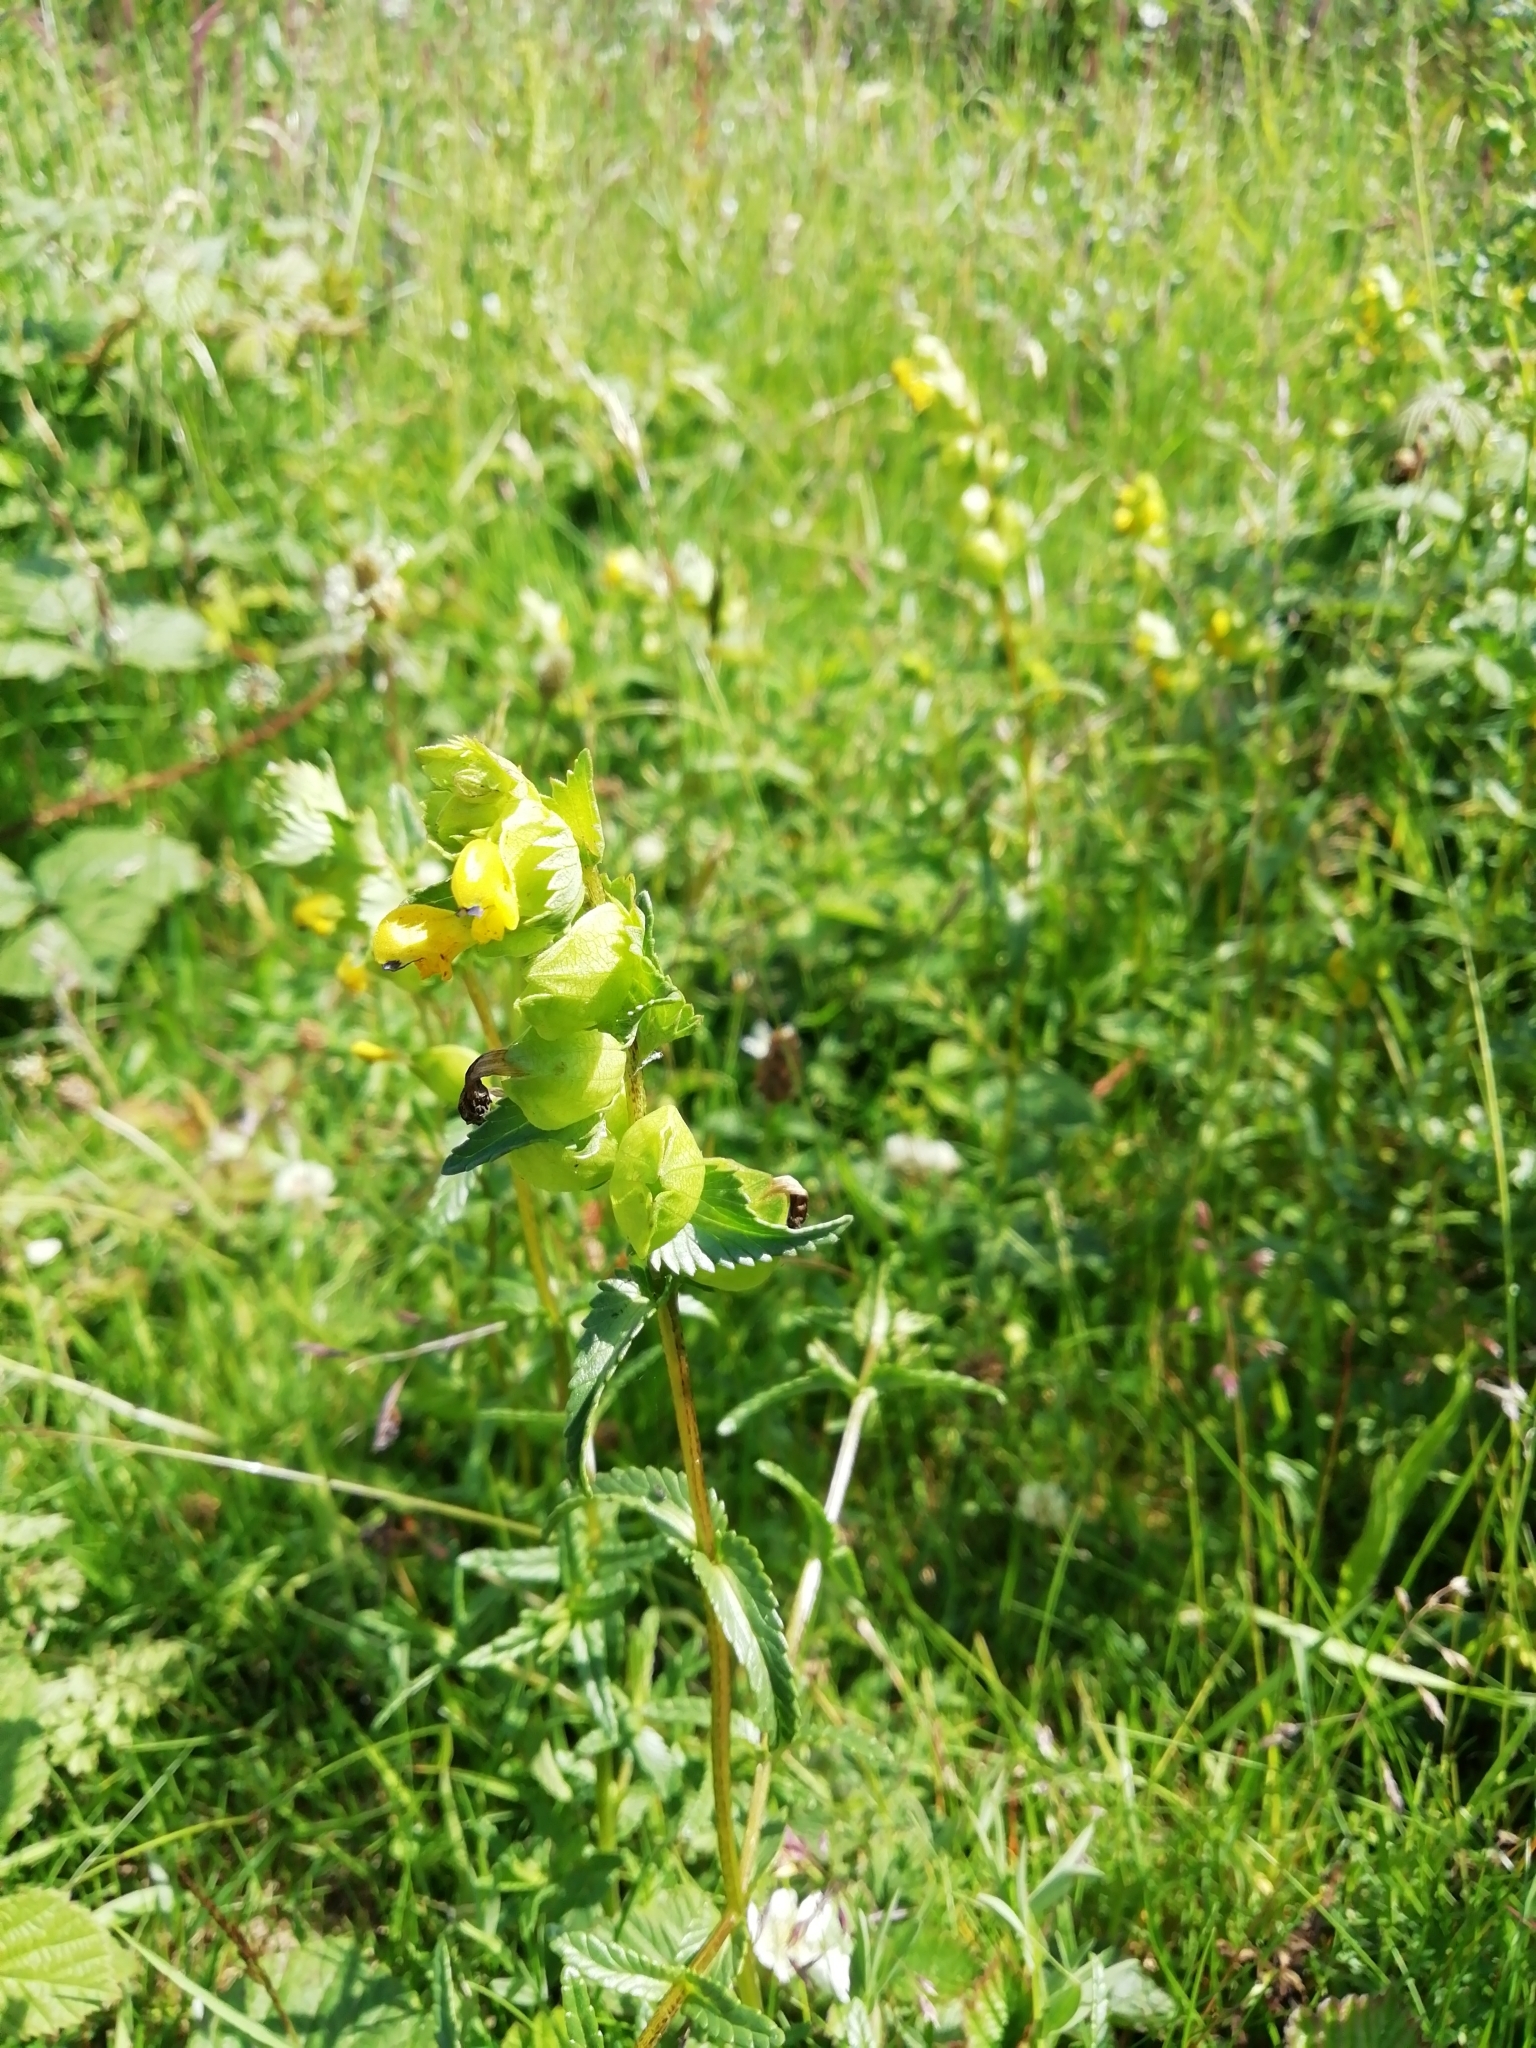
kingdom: Plantae
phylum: Tracheophyta
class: Magnoliopsida
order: Lamiales
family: Orobanchaceae
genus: Rhinanthus
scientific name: Rhinanthus minor
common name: Yellow-rattle
